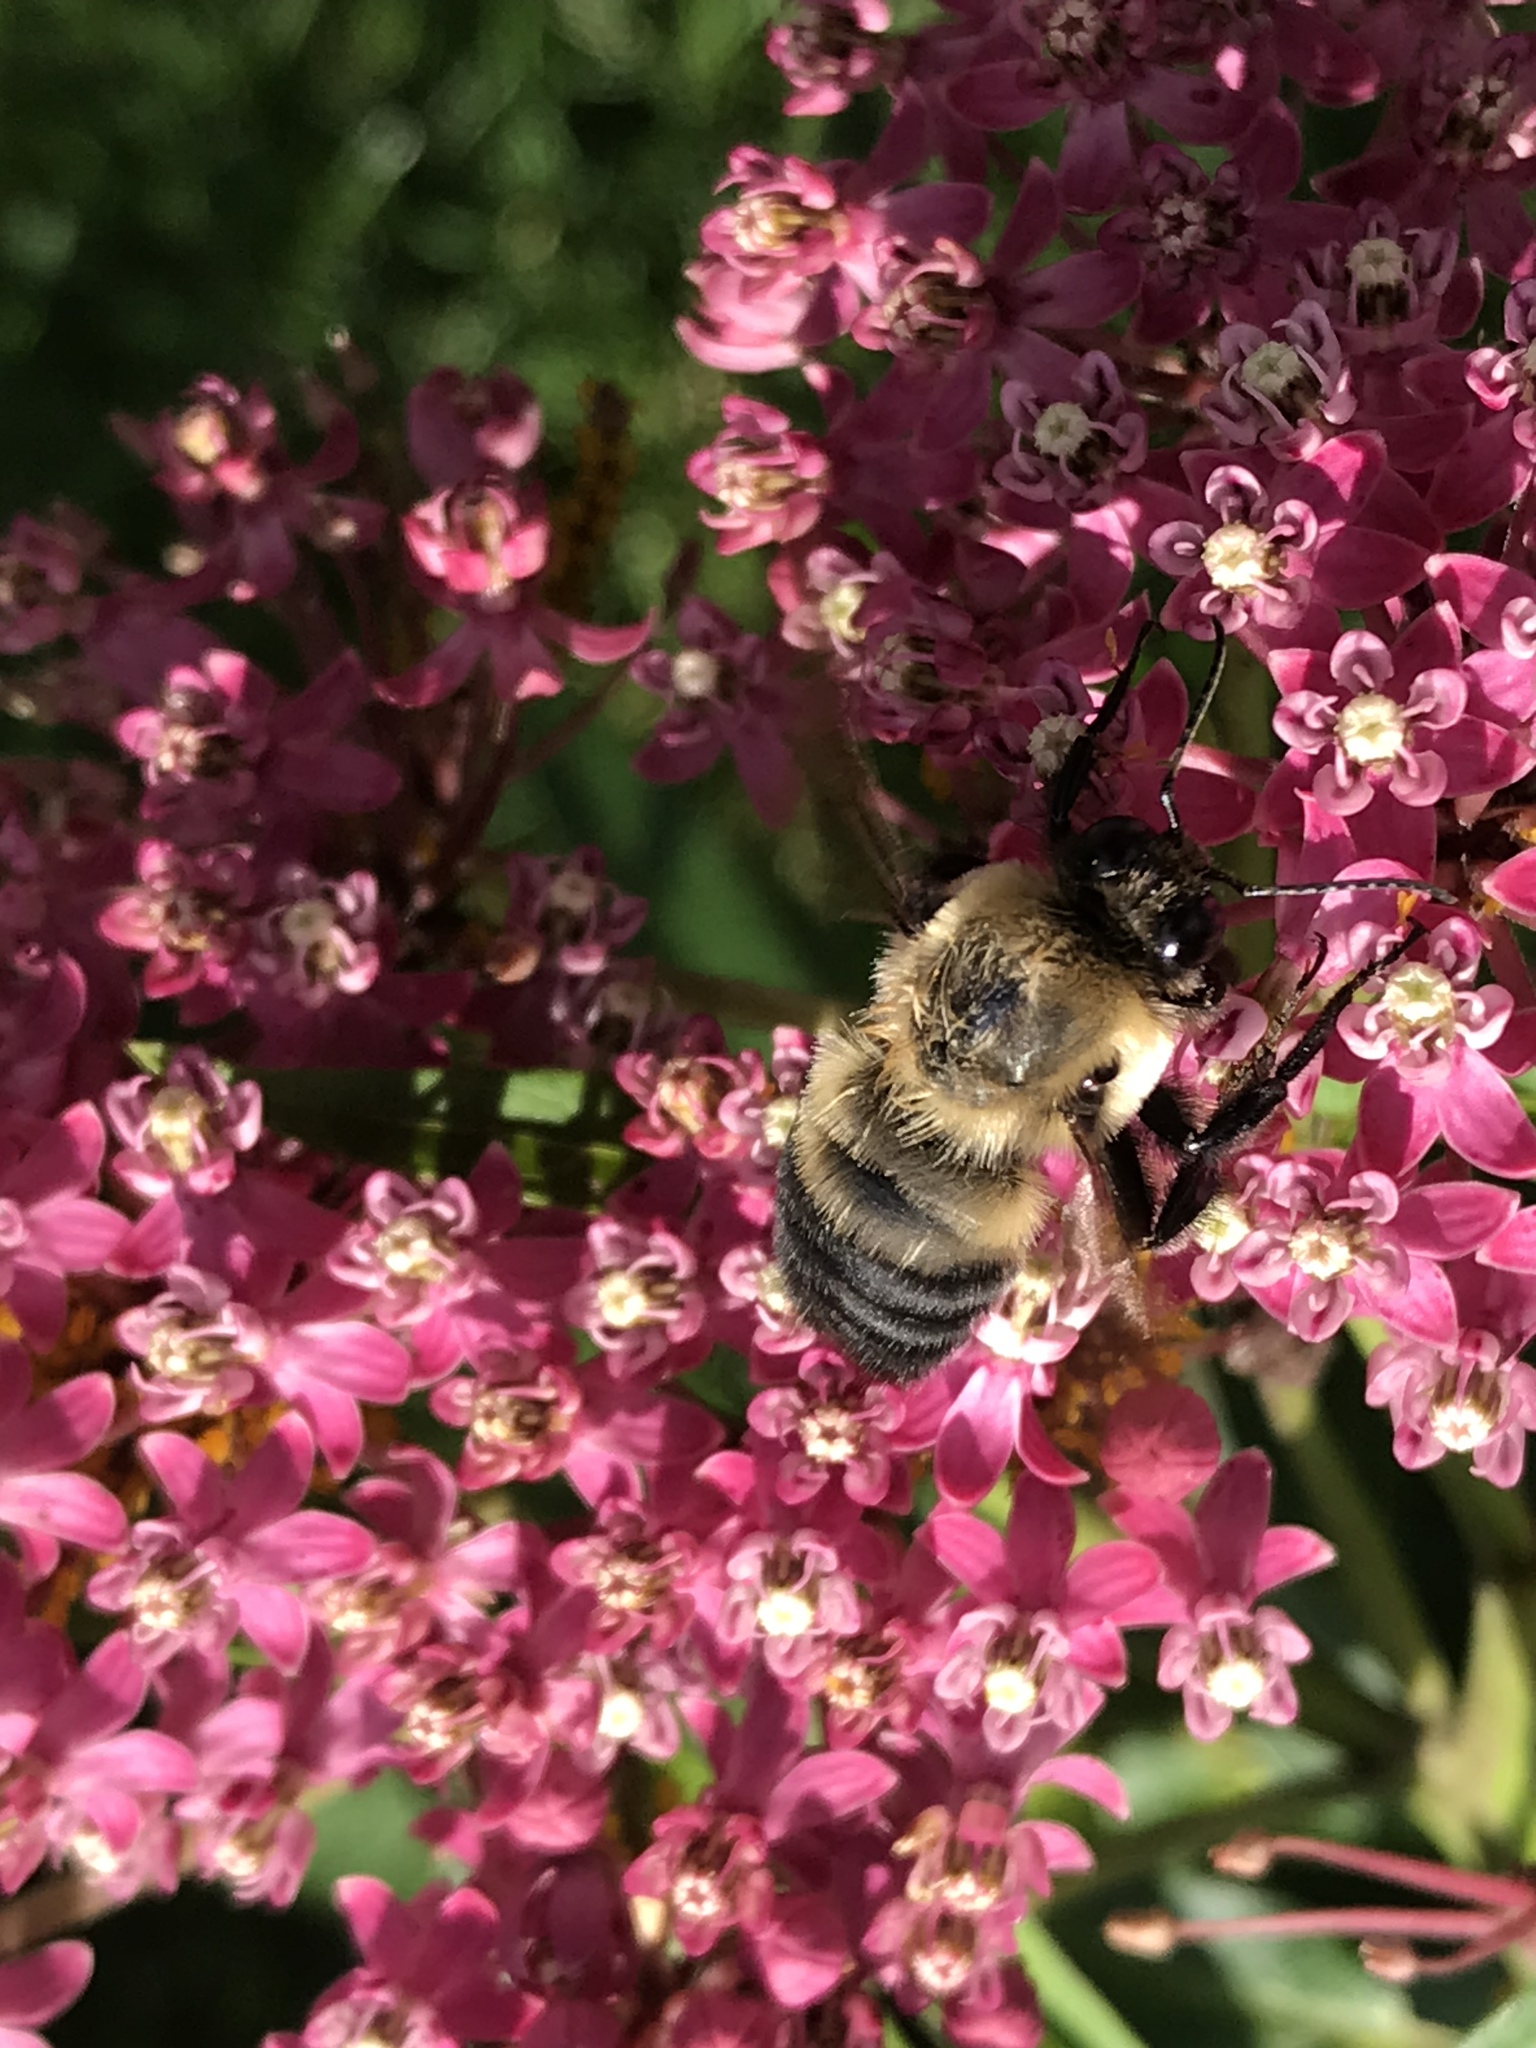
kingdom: Animalia
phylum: Arthropoda
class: Insecta
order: Hymenoptera
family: Apidae
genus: Bombus
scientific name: Bombus griseocollis
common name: Brown-belted bumble bee
